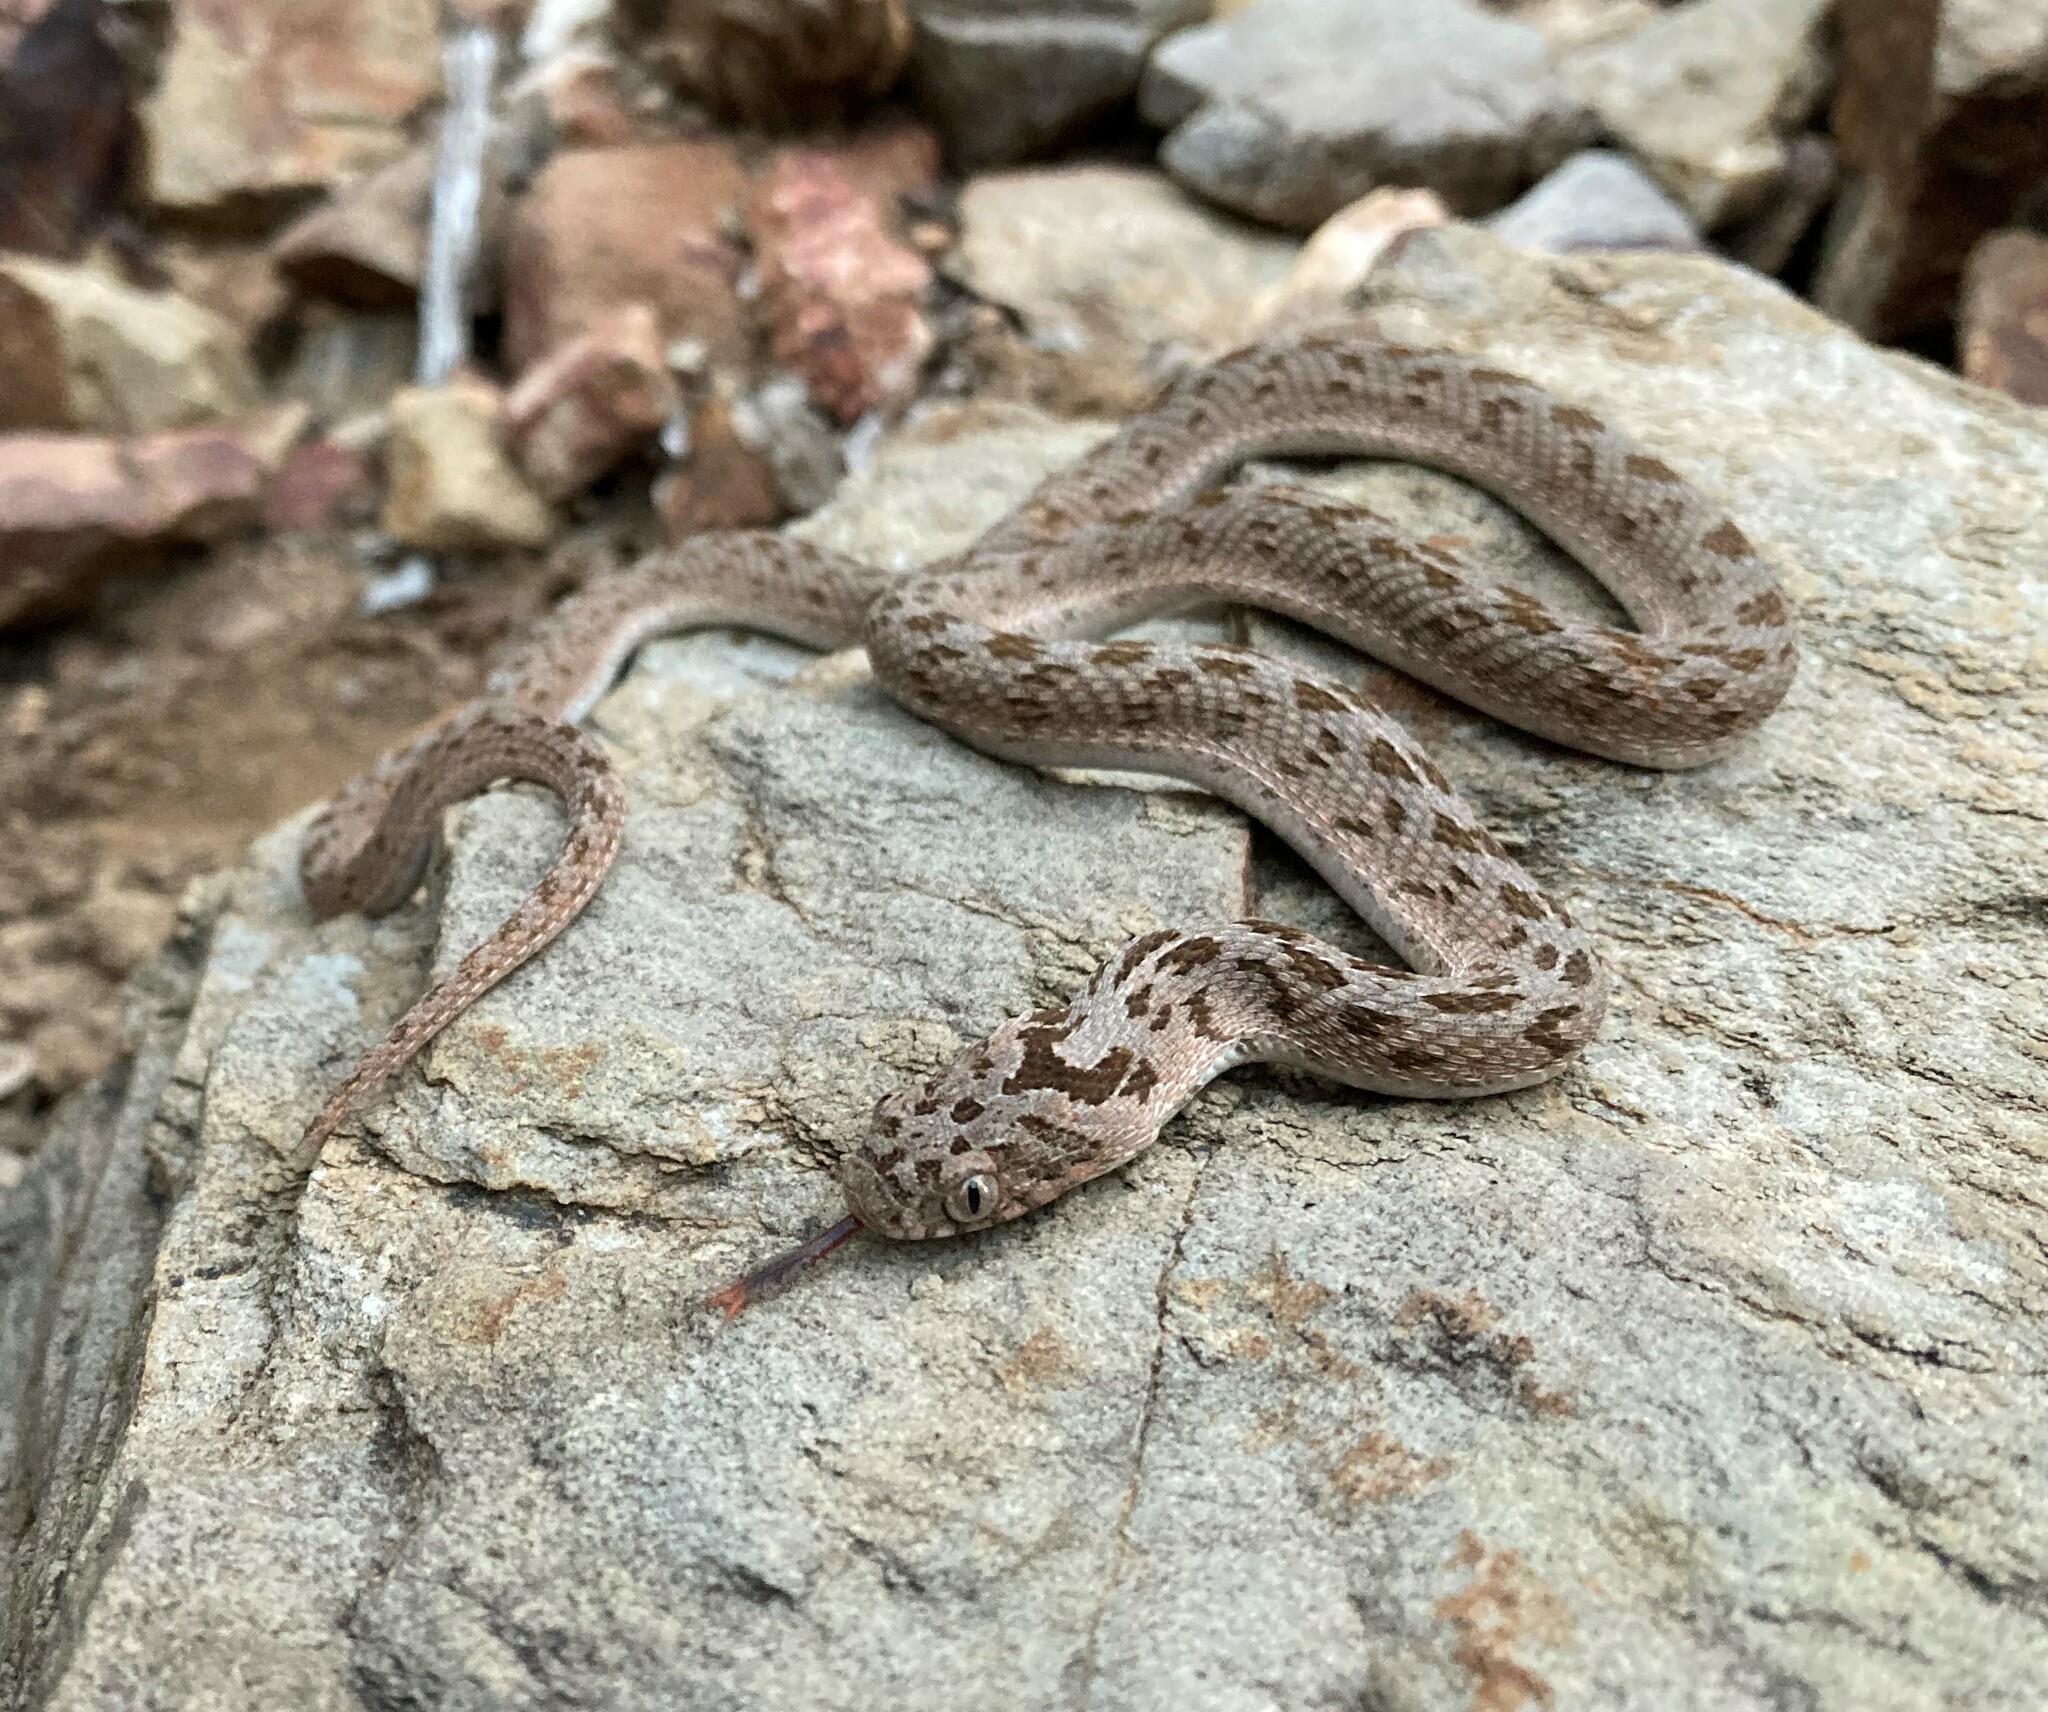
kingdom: Animalia
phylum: Chordata
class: Squamata
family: Colubridae
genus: Dasypeltis
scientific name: Dasypeltis scabra
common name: Common egg eater
